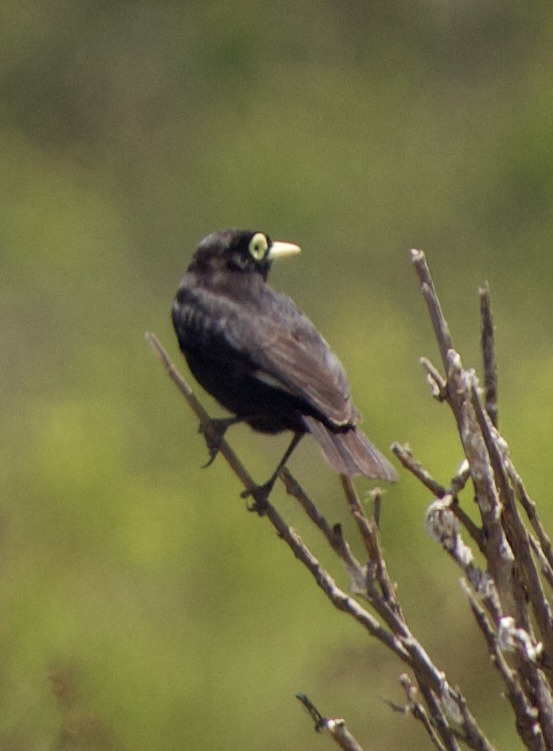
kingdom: Animalia
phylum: Chordata
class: Aves
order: Passeriformes
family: Tyrannidae
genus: Hymenops
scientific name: Hymenops perspicillatus
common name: Spectacled tyrant
